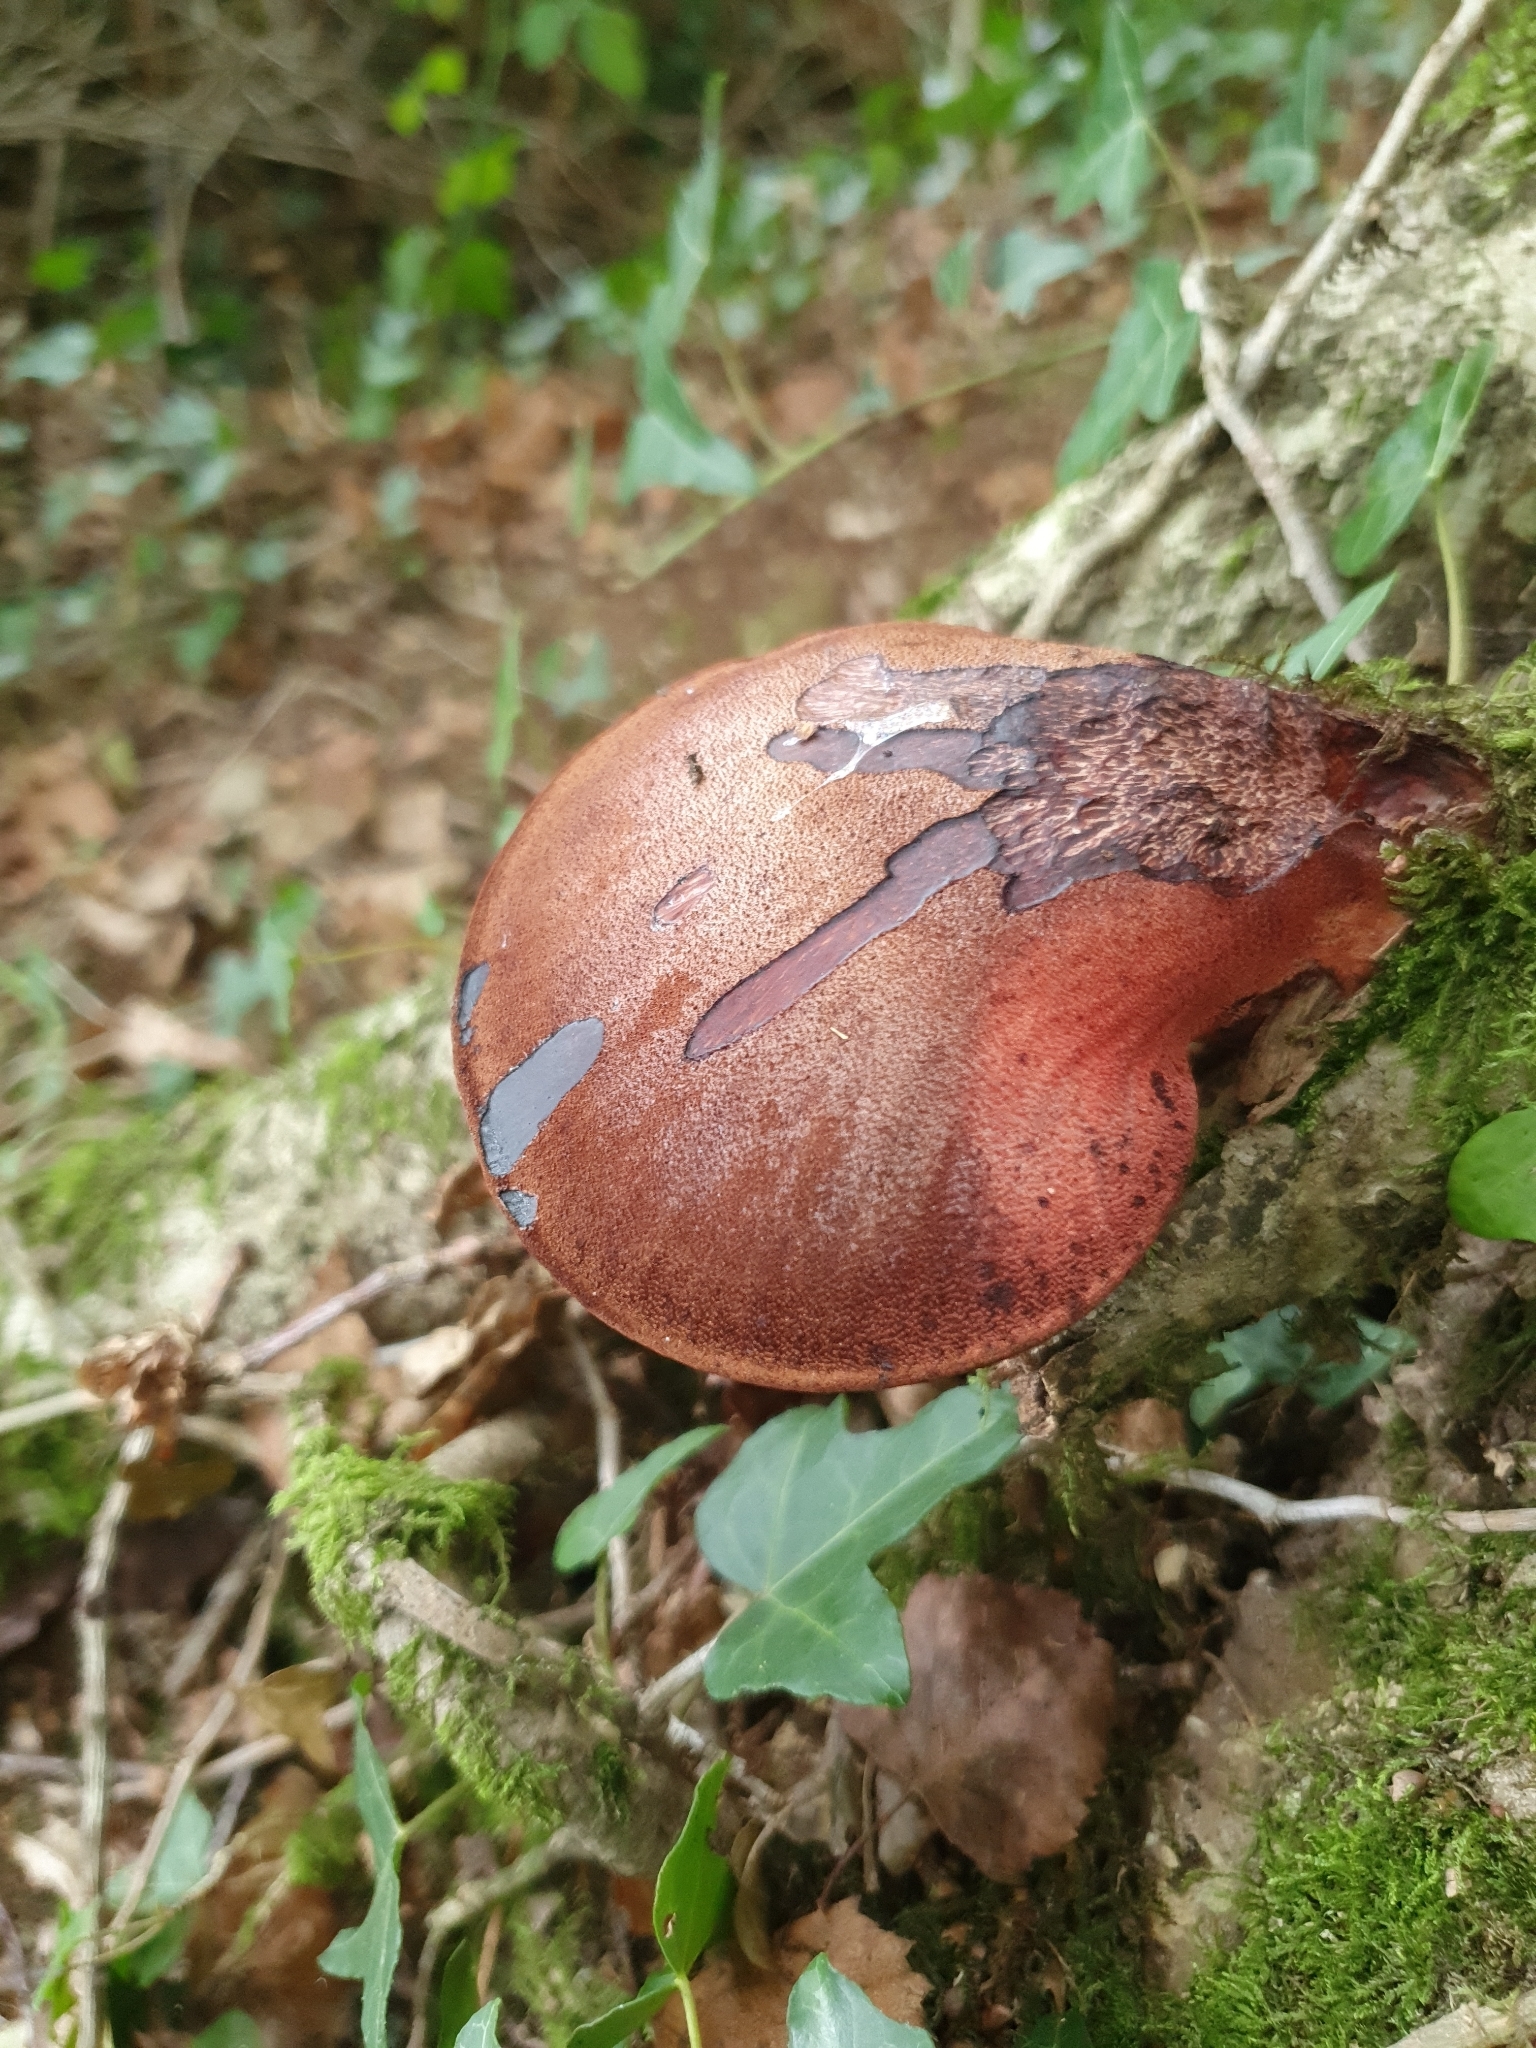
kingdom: Fungi
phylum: Basidiomycota
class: Agaricomycetes
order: Agaricales
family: Fistulinaceae
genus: Fistulina
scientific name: Fistulina hepatica
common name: Beef-steak fungus
